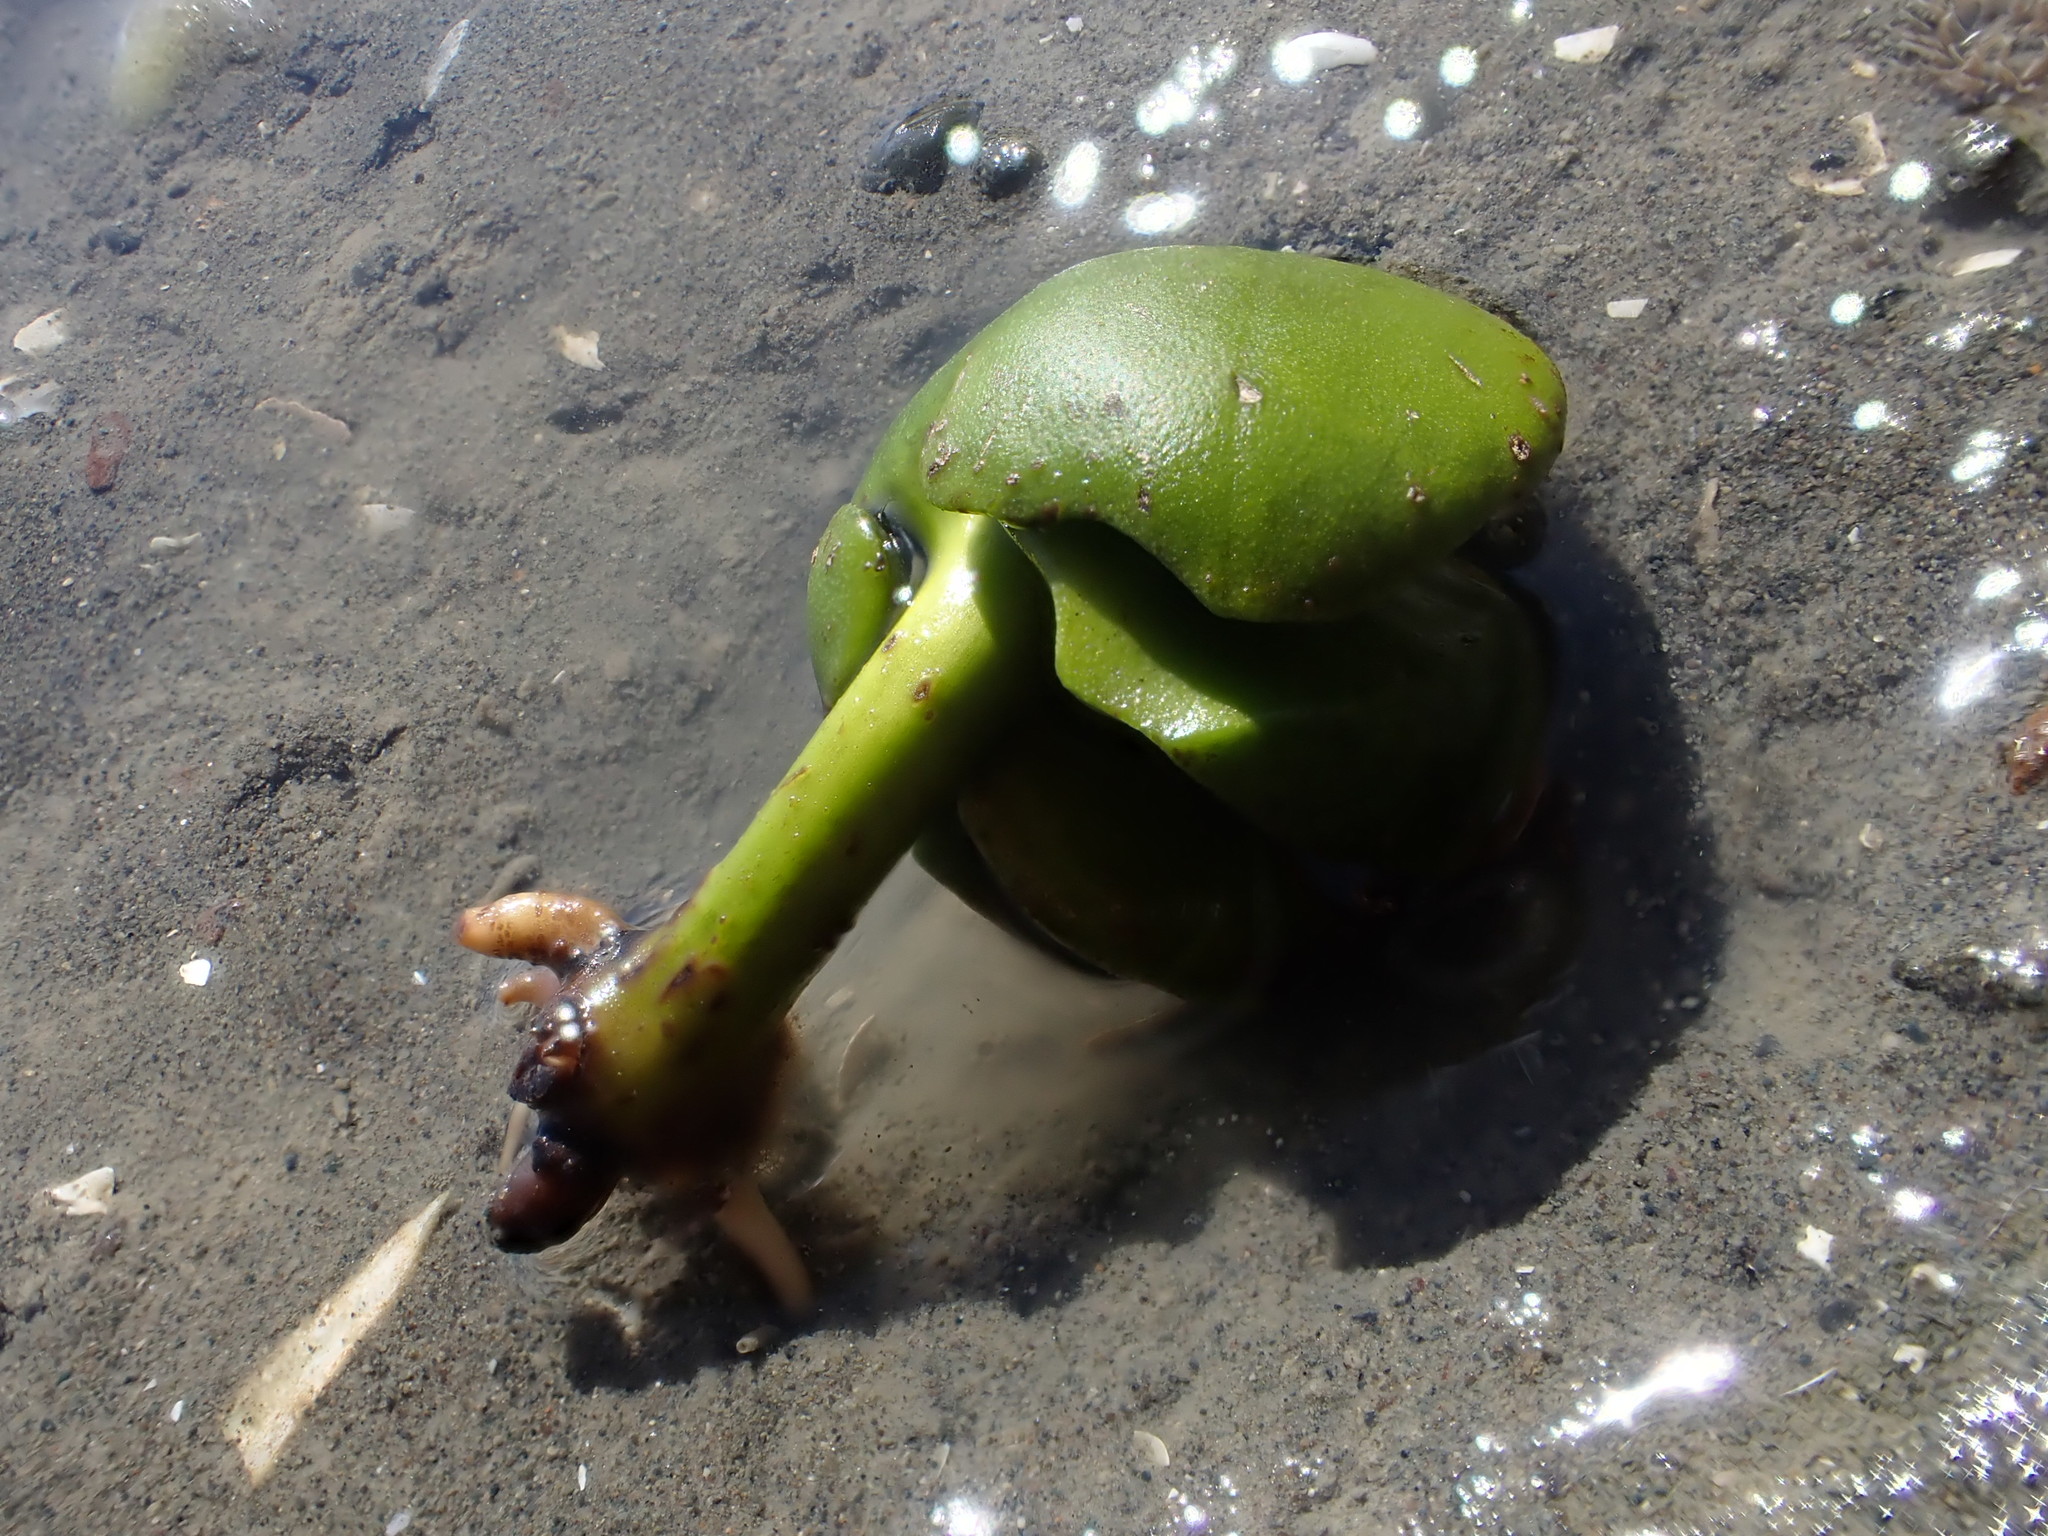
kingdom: Plantae
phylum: Tracheophyta
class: Magnoliopsida
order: Lamiales
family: Acanthaceae
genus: Avicennia
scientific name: Avicennia marina
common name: Gray mangrove
